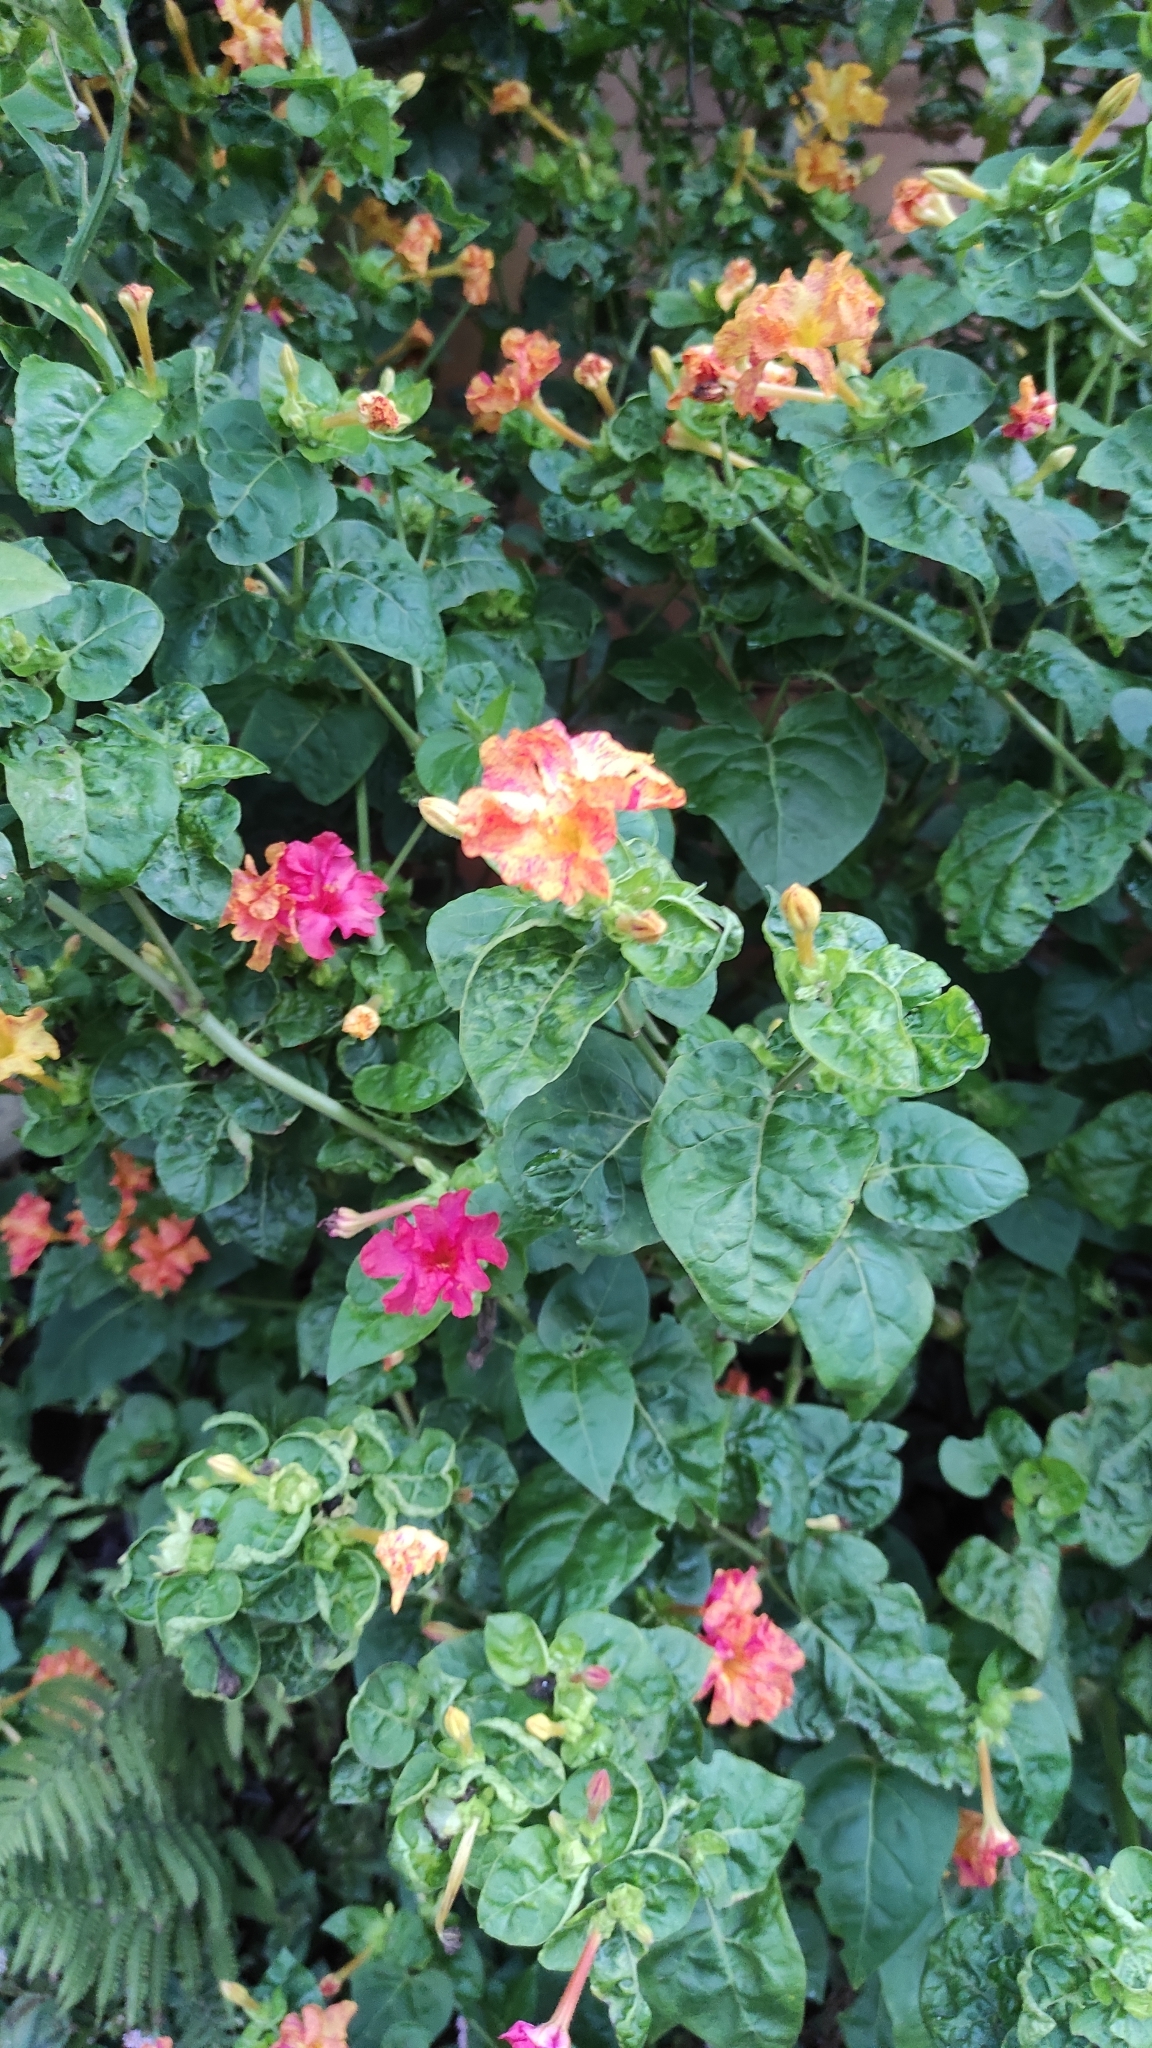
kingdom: Plantae
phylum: Tracheophyta
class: Magnoliopsida
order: Caryophyllales
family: Nyctaginaceae
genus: Mirabilis
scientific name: Mirabilis jalapa
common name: Marvel-of-peru
